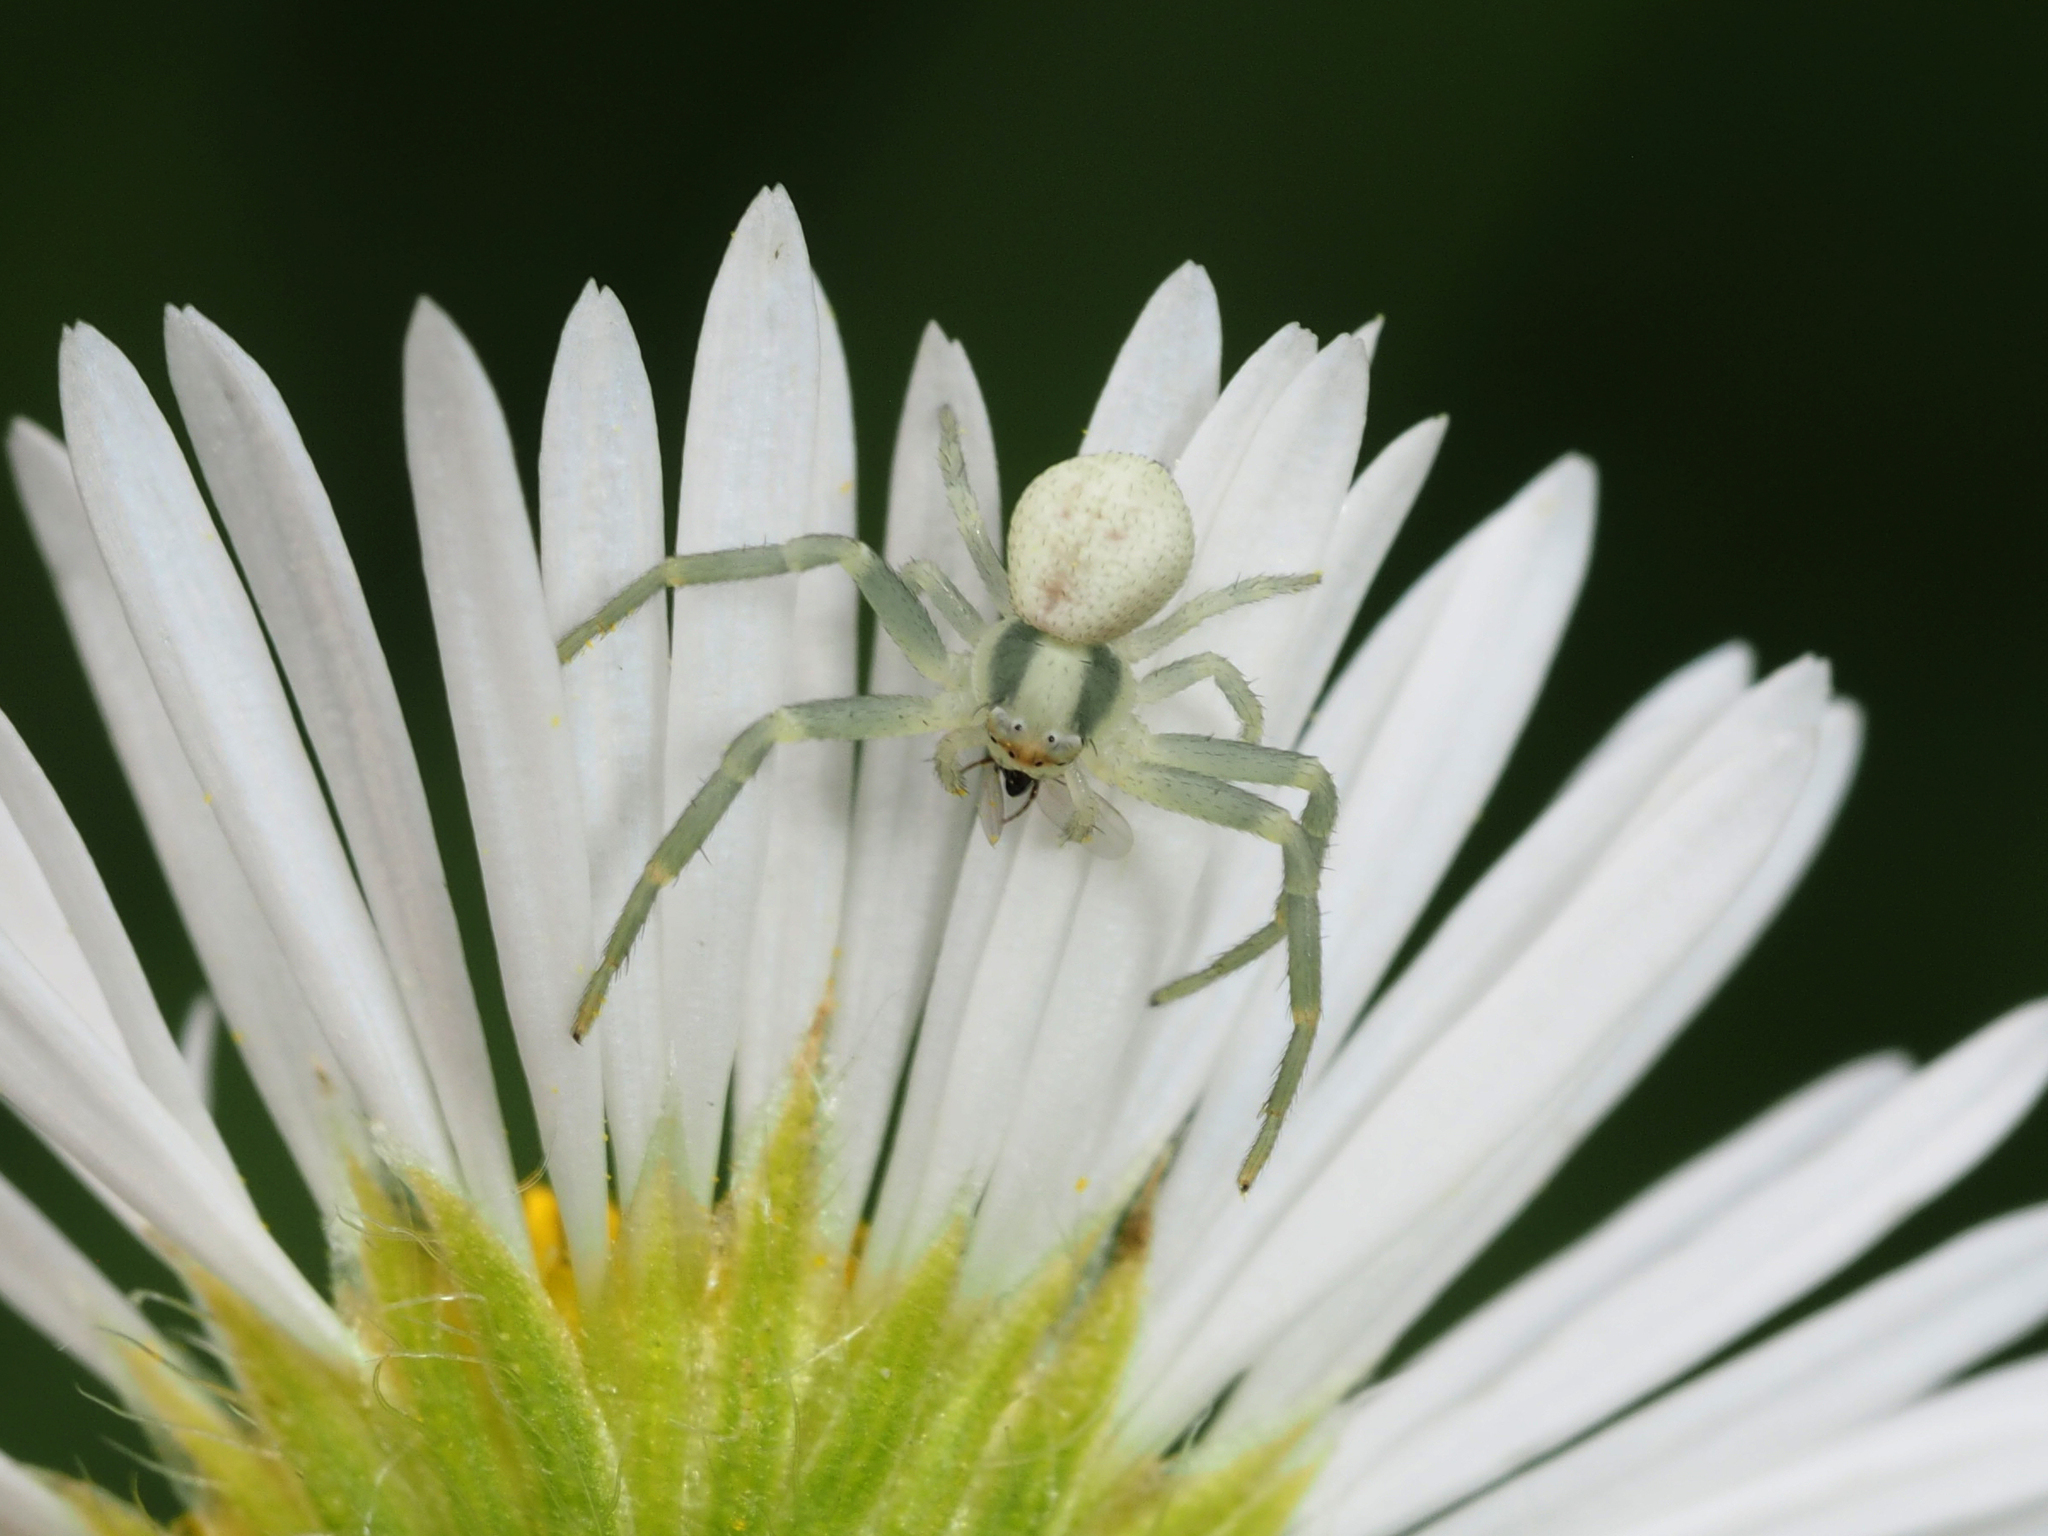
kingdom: Animalia
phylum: Arthropoda
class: Arachnida
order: Araneae
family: Thomisidae
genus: Misumena
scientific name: Misumena vatia
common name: Goldenrod crab spider
